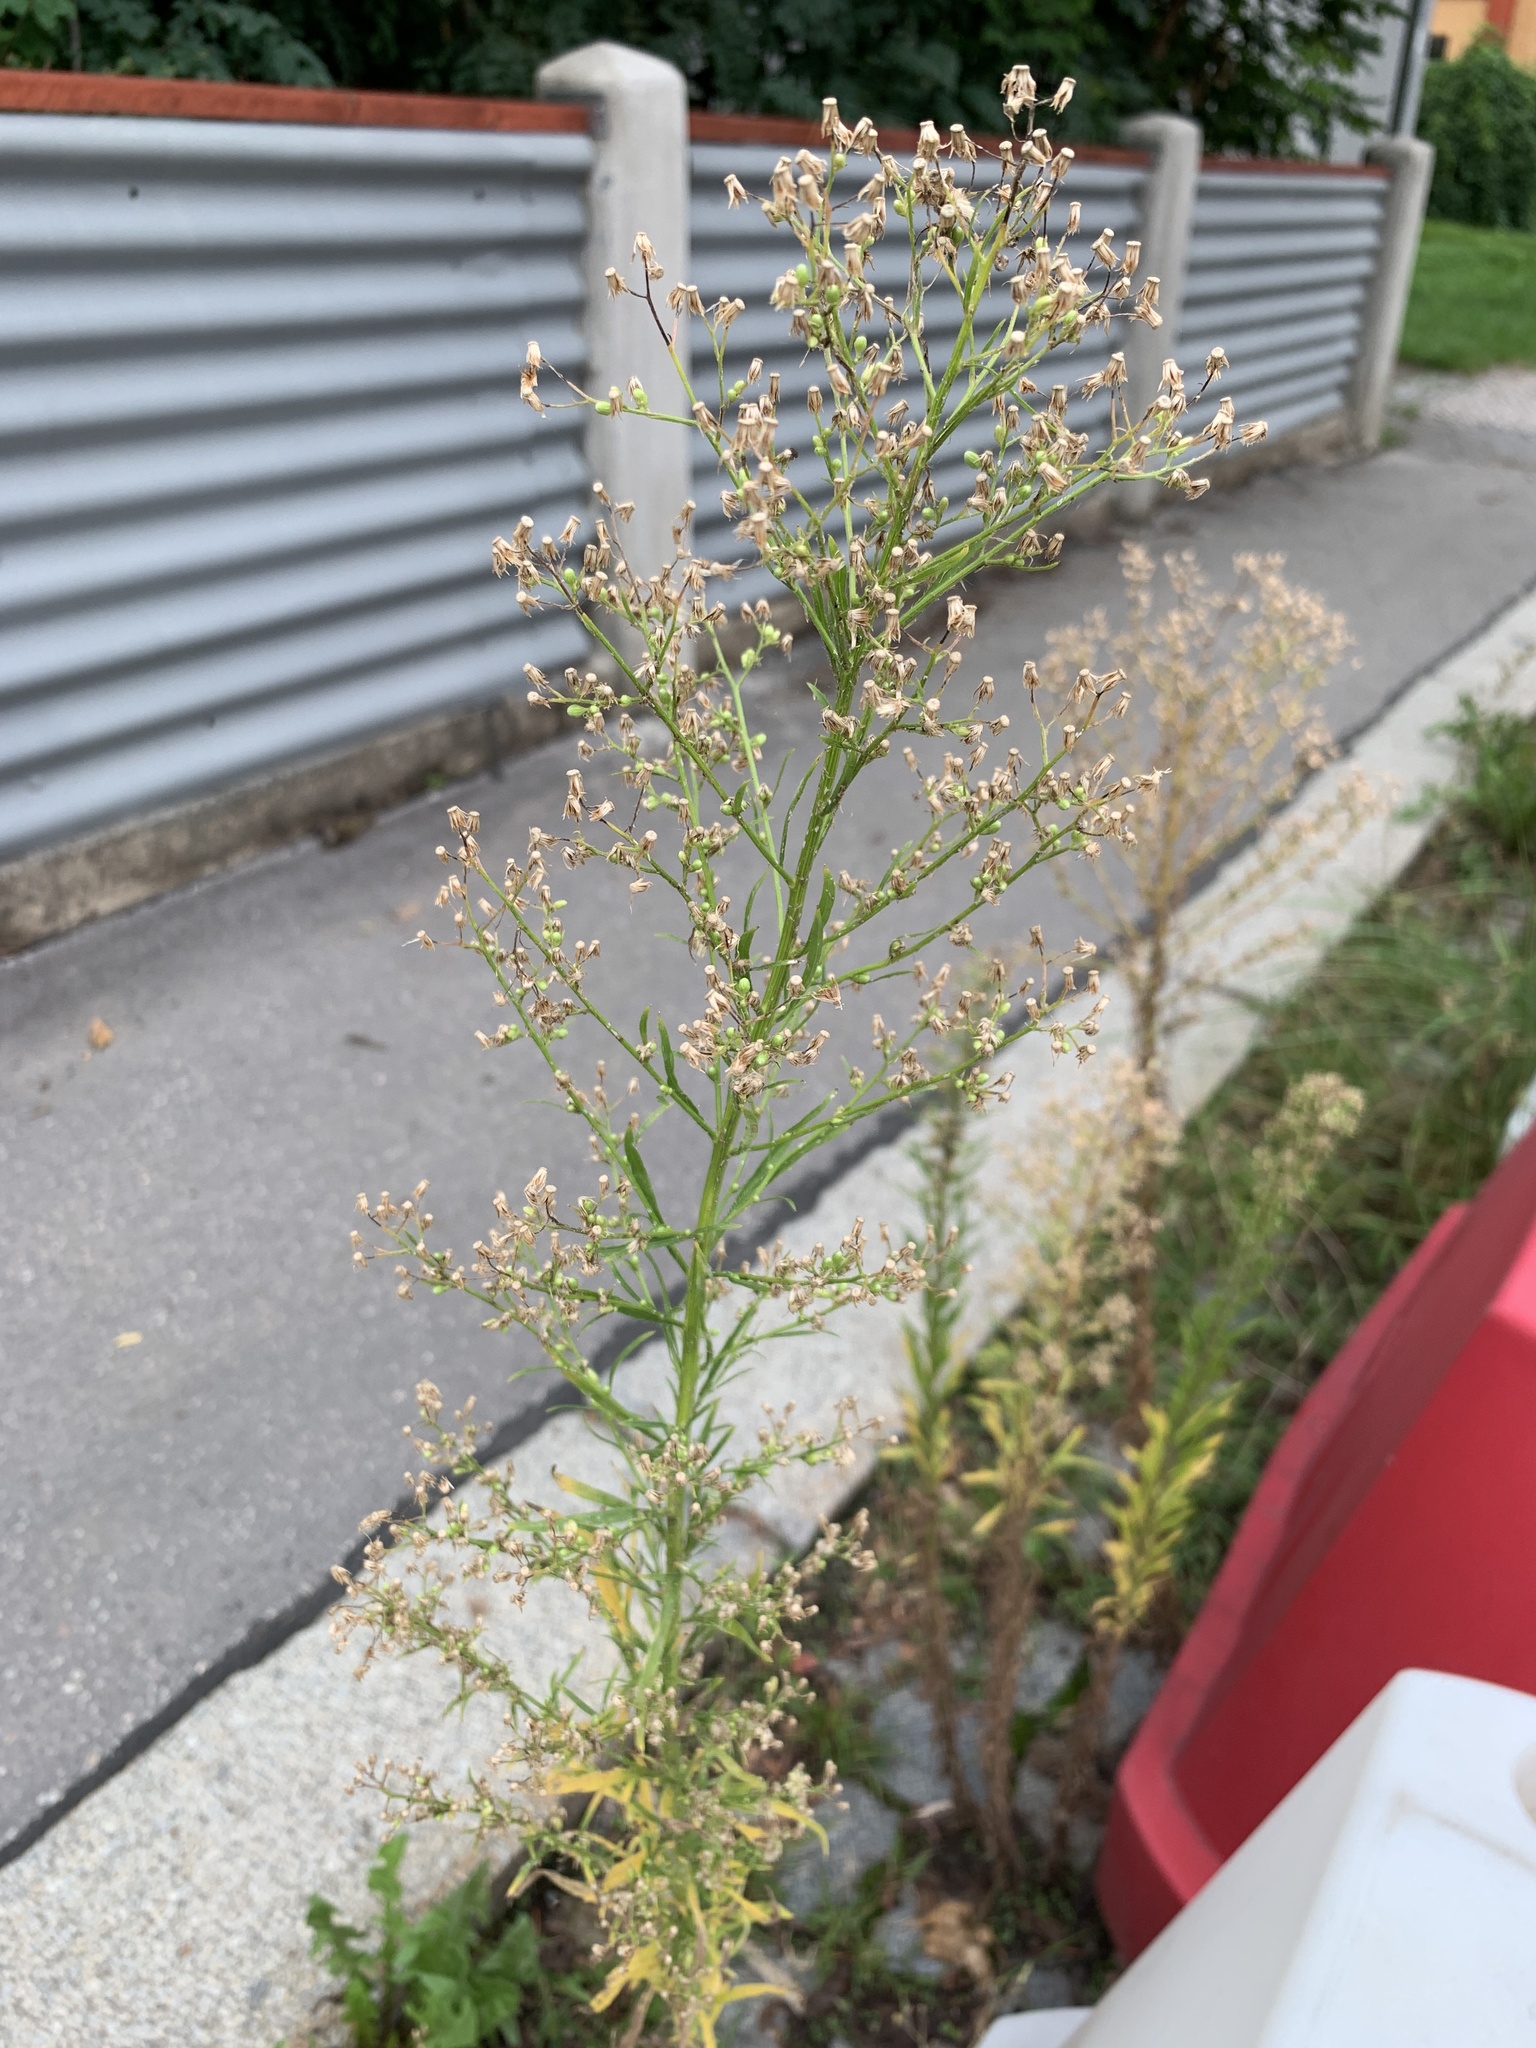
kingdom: Plantae
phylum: Tracheophyta
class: Magnoliopsida
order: Asterales
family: Asteraceae
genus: Erigeron
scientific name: Erigeron canadensis
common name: Canadian fleabane
